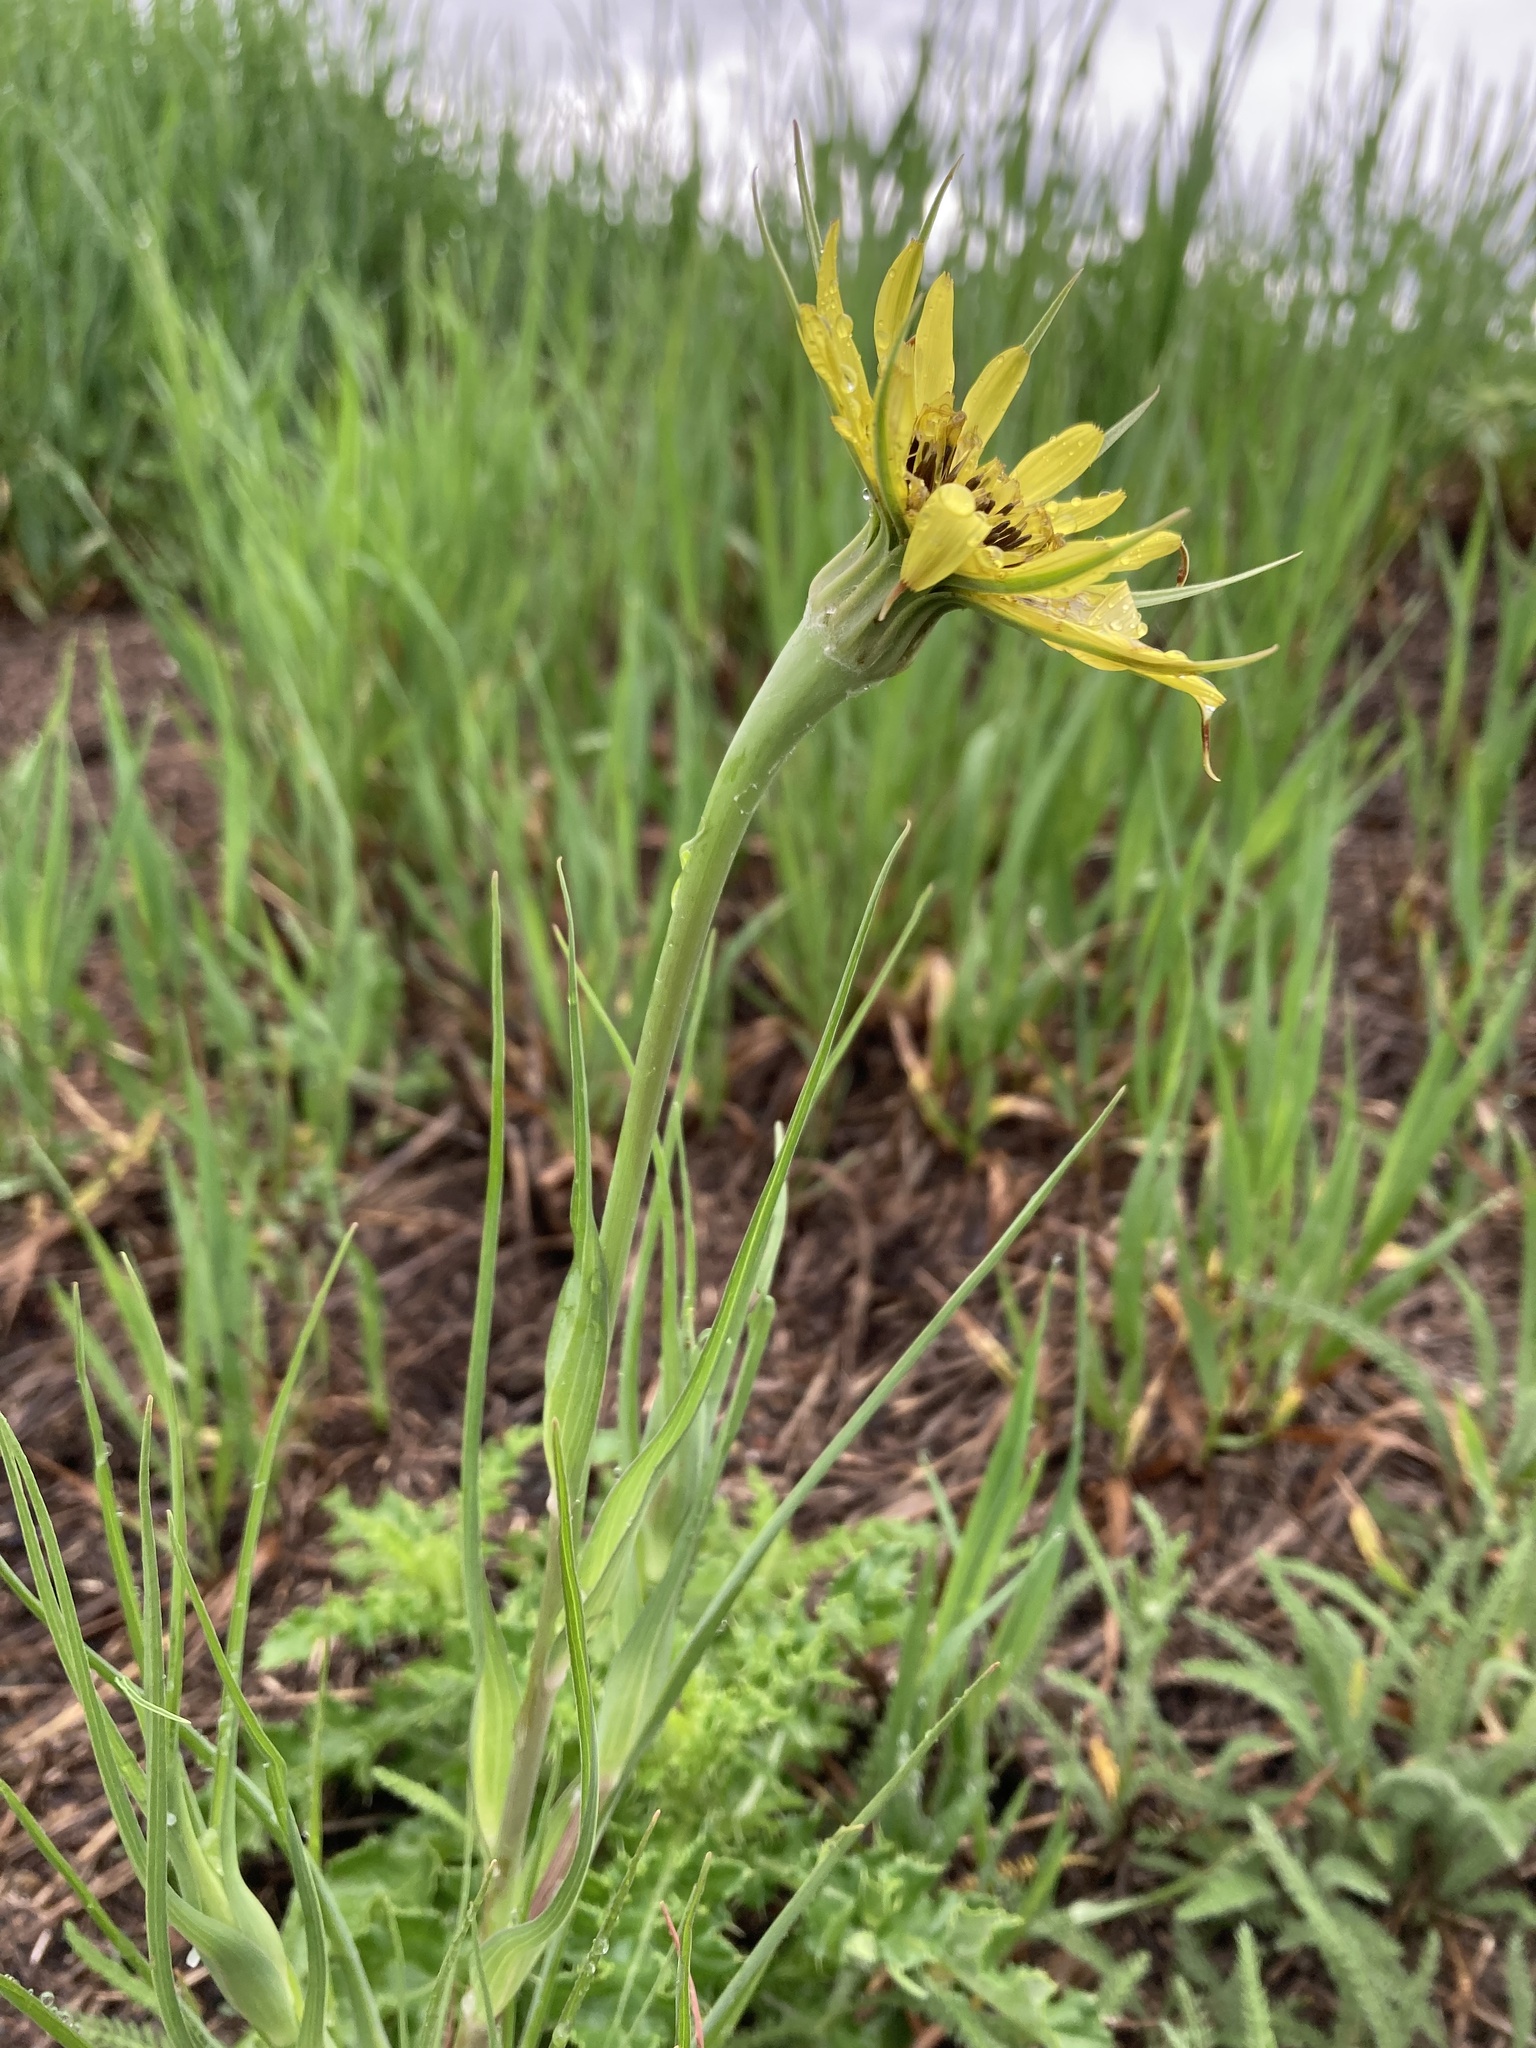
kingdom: Plantae
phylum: Tracheophyta
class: Magnoliopsida
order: Asterales
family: Asteraceae
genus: Tragopogon
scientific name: Tragopogon dubius
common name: Yellow salsify
